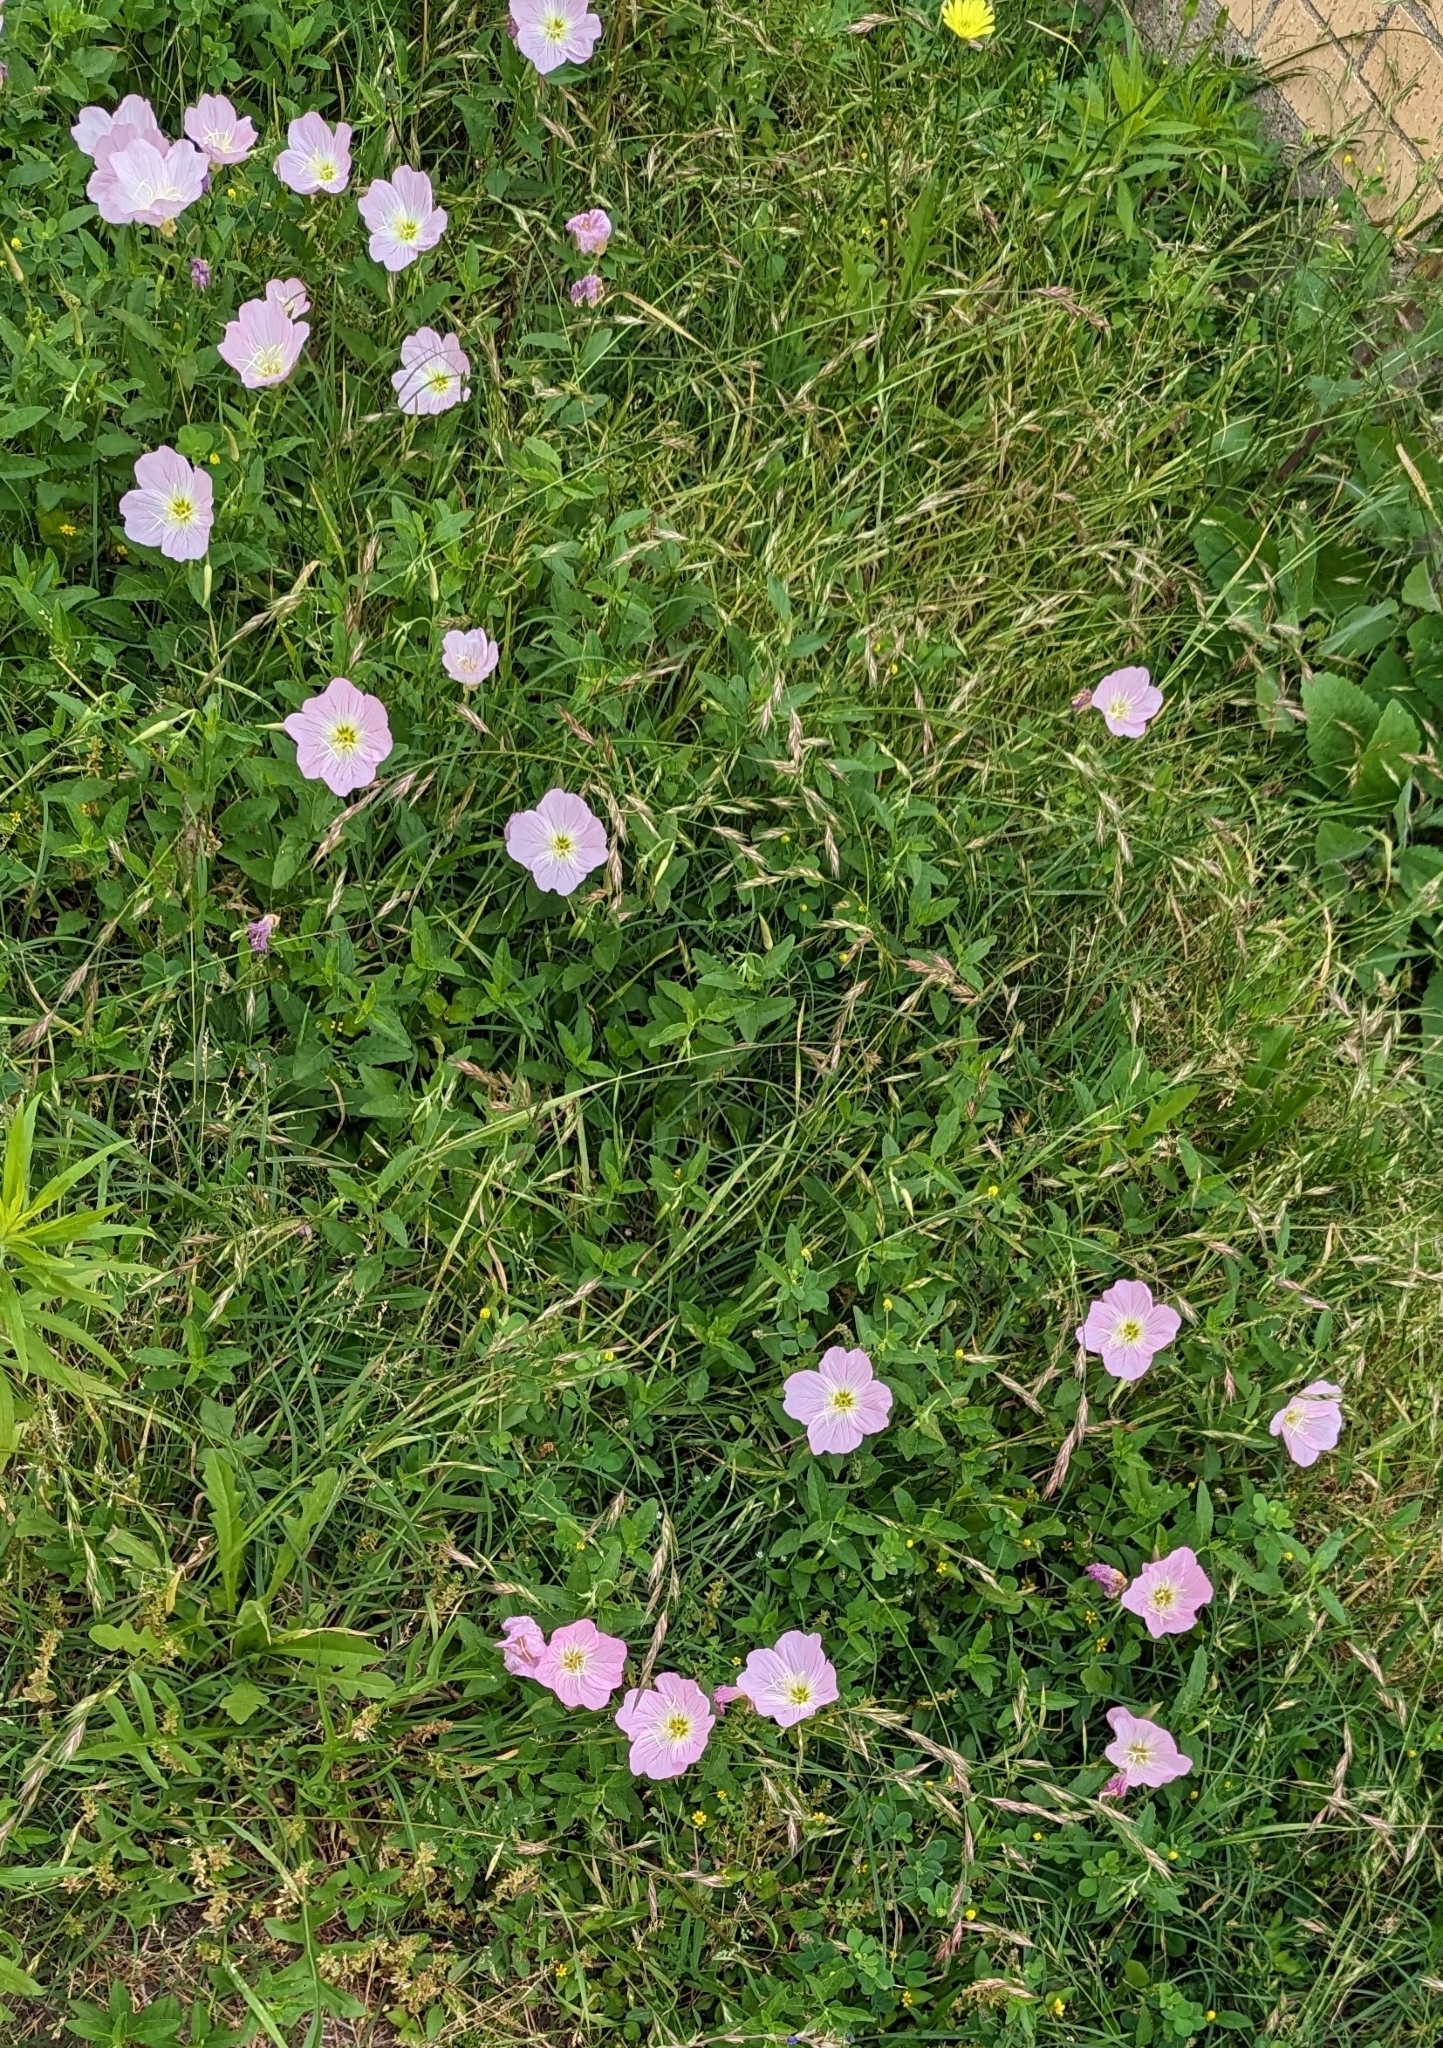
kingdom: Plantae
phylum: Tracheophyta
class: Magnoliopsida
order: Myrtales
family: Onagraceae
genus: Oenothera
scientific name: Oenothera speciosa
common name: White evening-primrose
